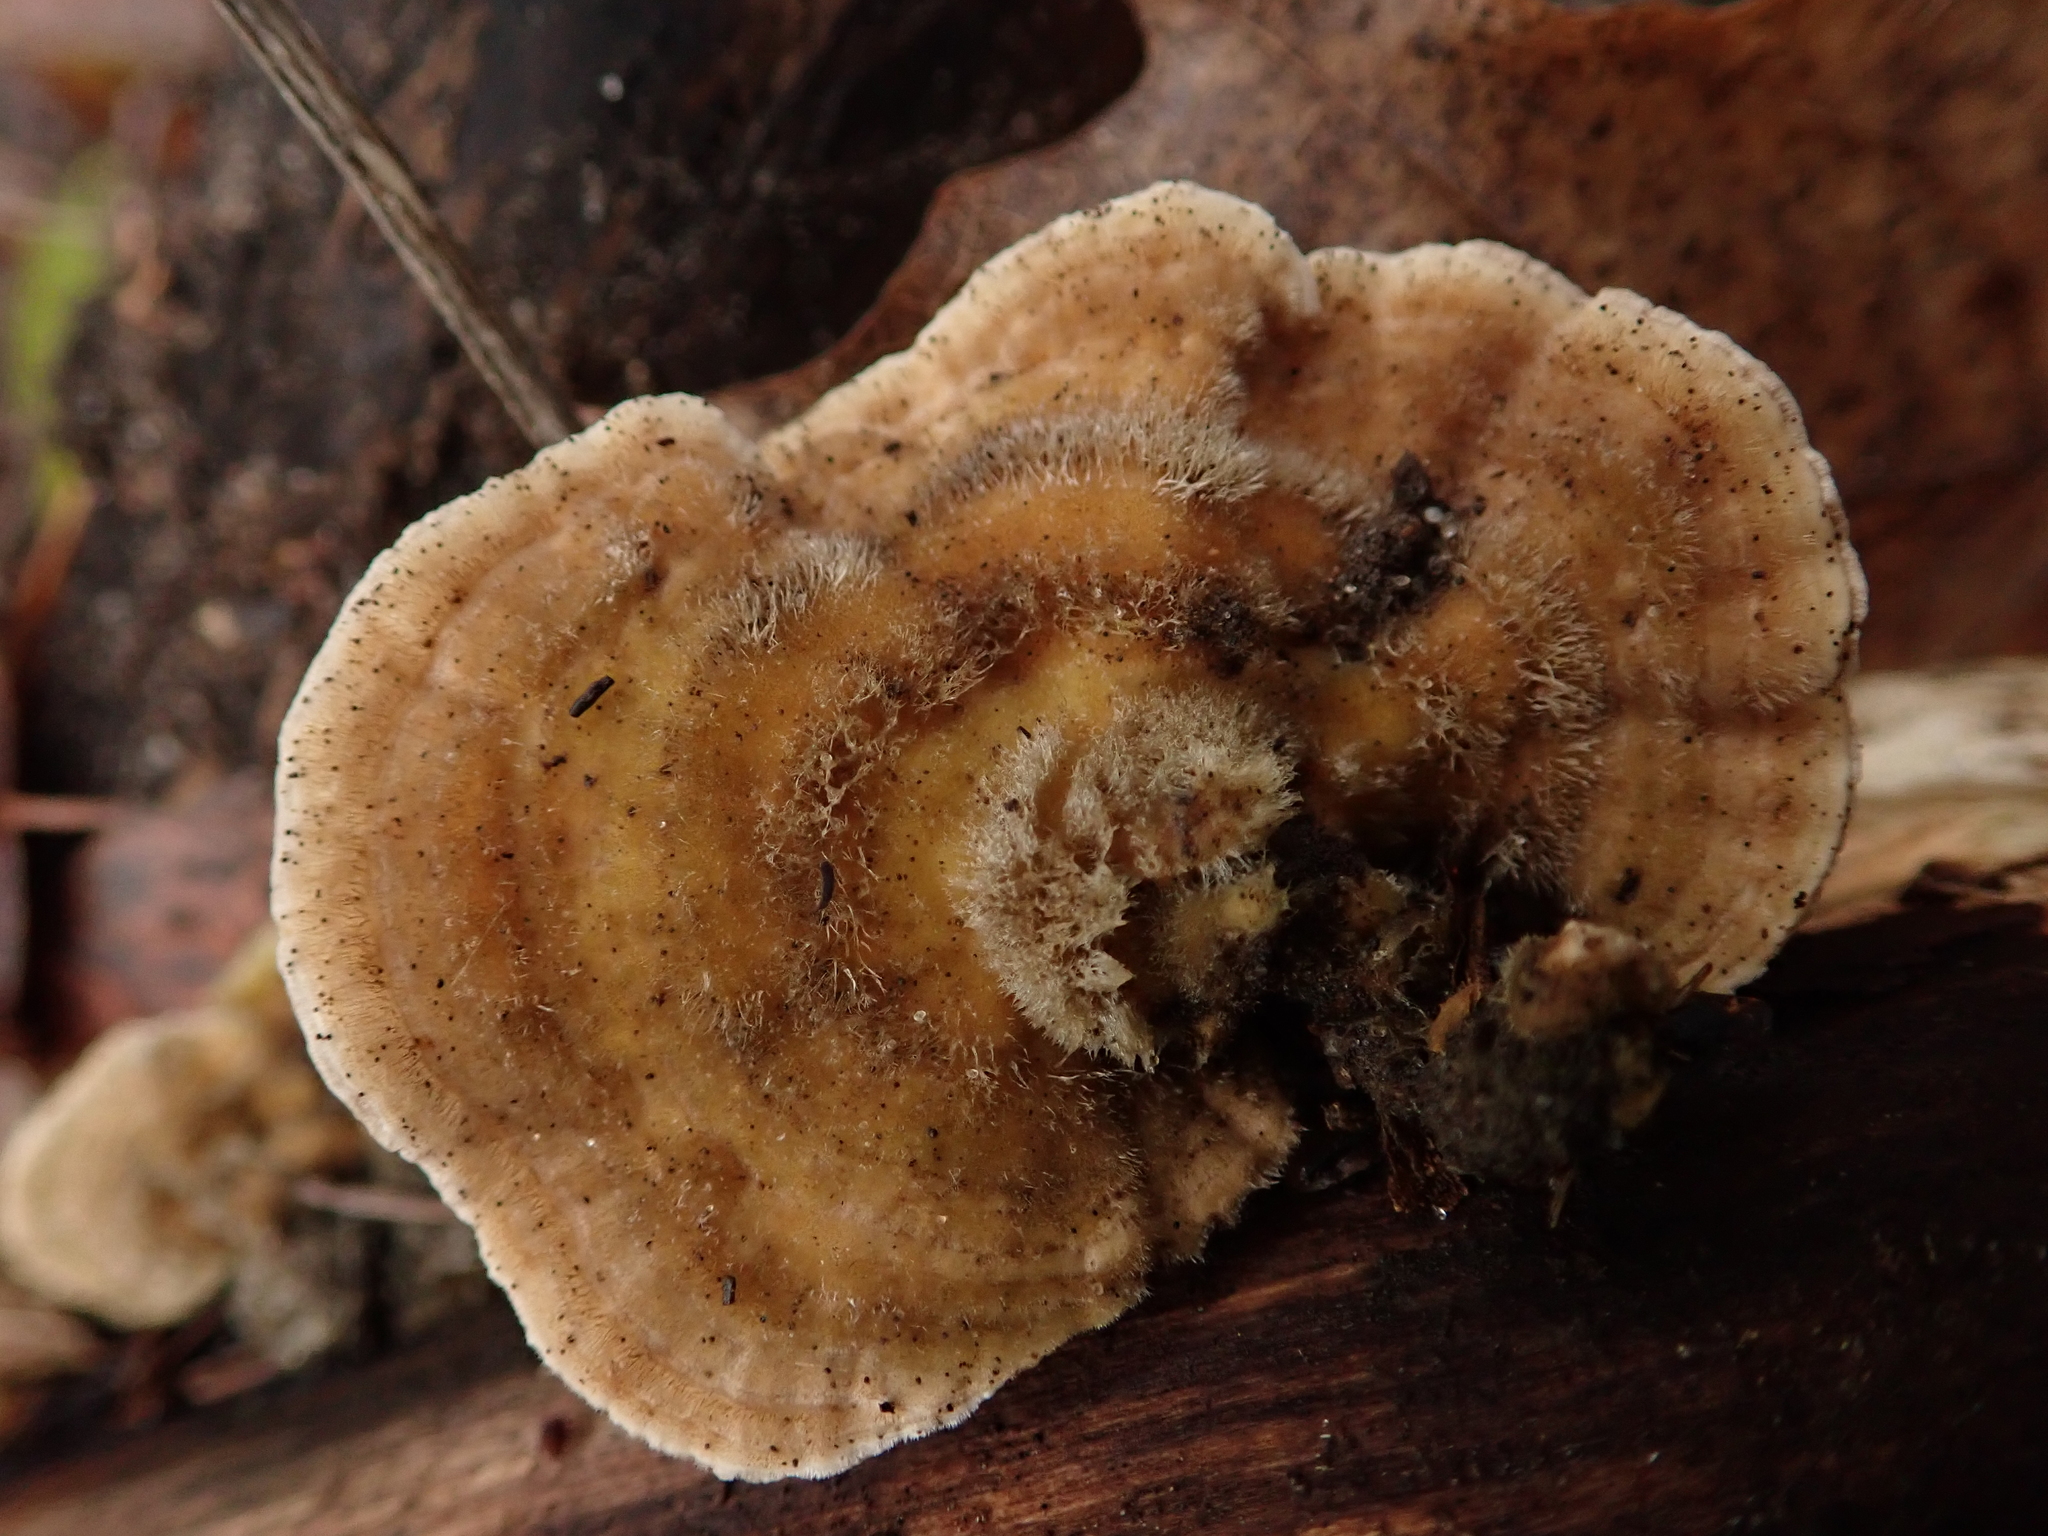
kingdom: Fungi
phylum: Basidiomycota
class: Agaricomycetes
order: Polyporales
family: Polyporaceae
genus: Lenzites
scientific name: Lenzites betulinus
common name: Birch mazegill
